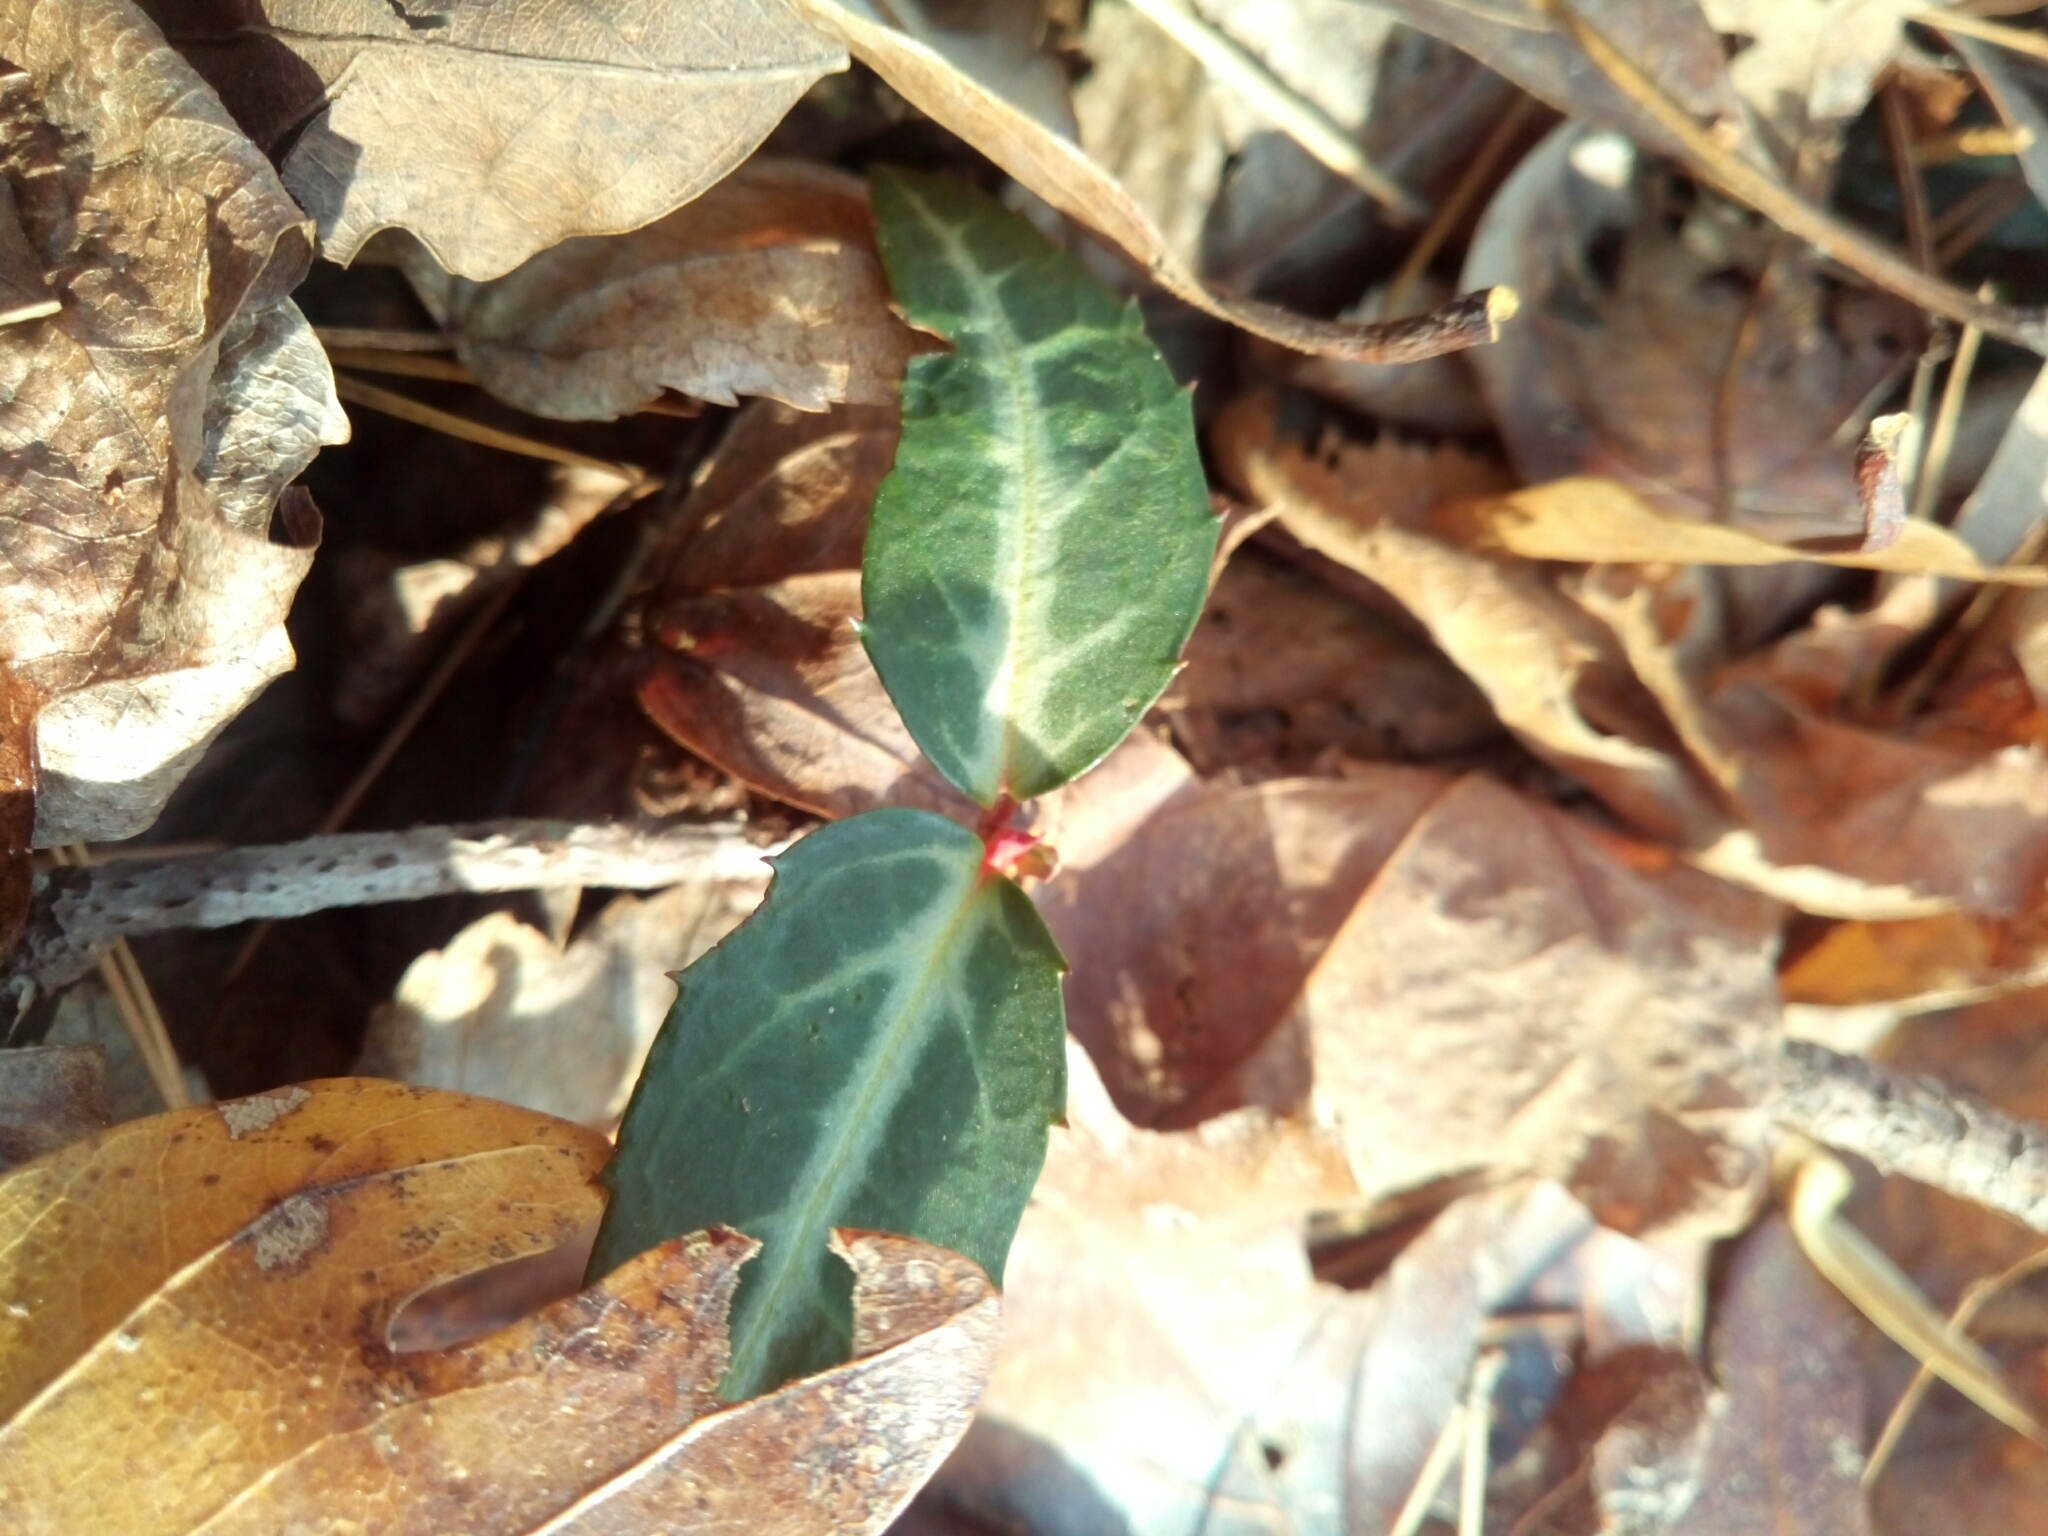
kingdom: Plantae
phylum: Tracheophyta
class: Magnoliopsida
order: Ericales
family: Ericaceae
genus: Chimaphila
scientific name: Chimaphila maculata
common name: Spotted pipsissewa
